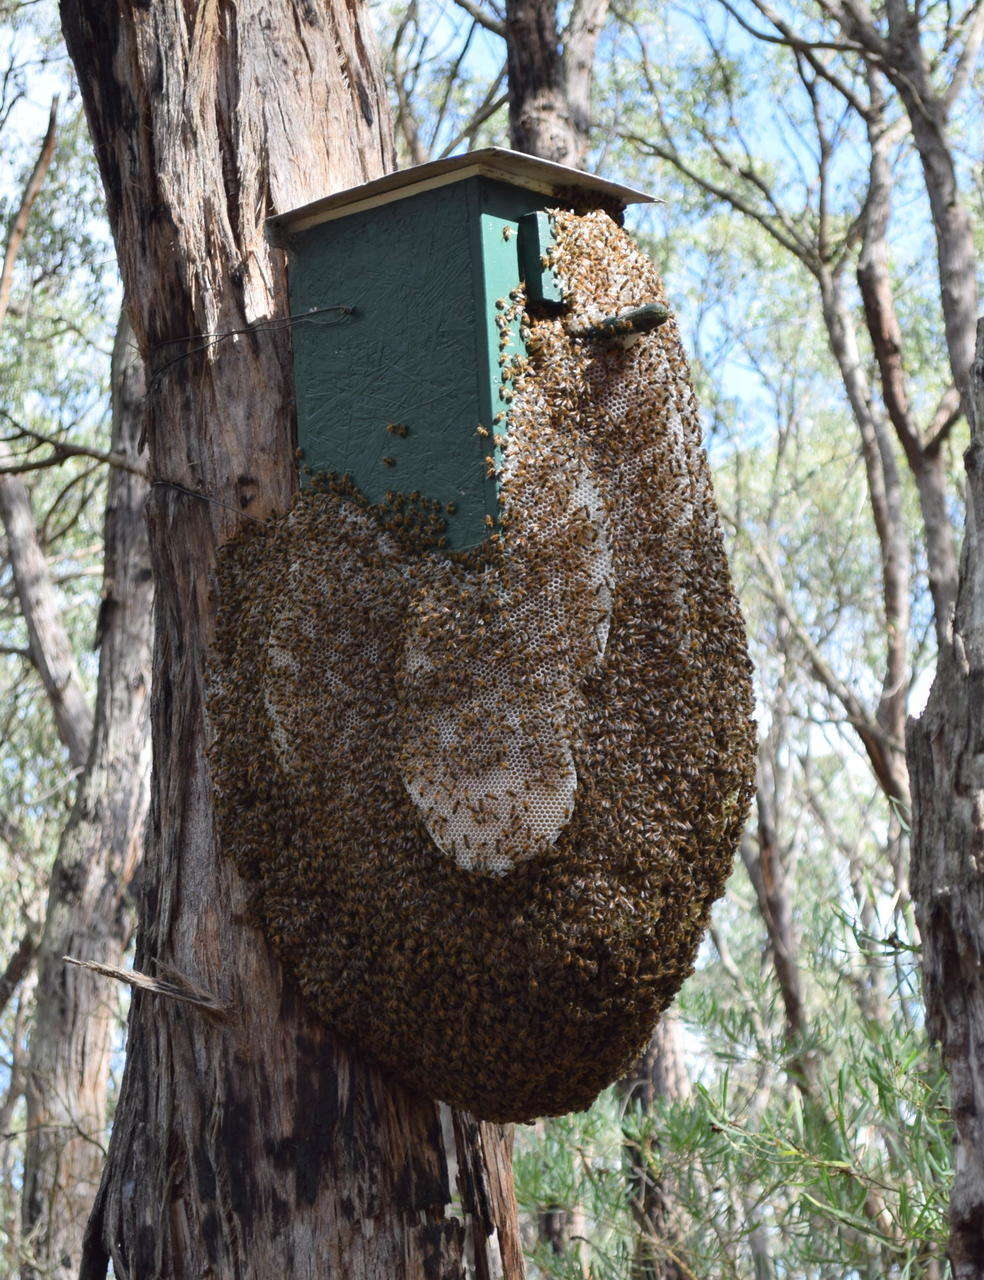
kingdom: Animalia
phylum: Arthropoda
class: Insecta
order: Hymenoptera
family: Apidae
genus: Apis
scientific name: Apis mellifera
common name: Honey bee
